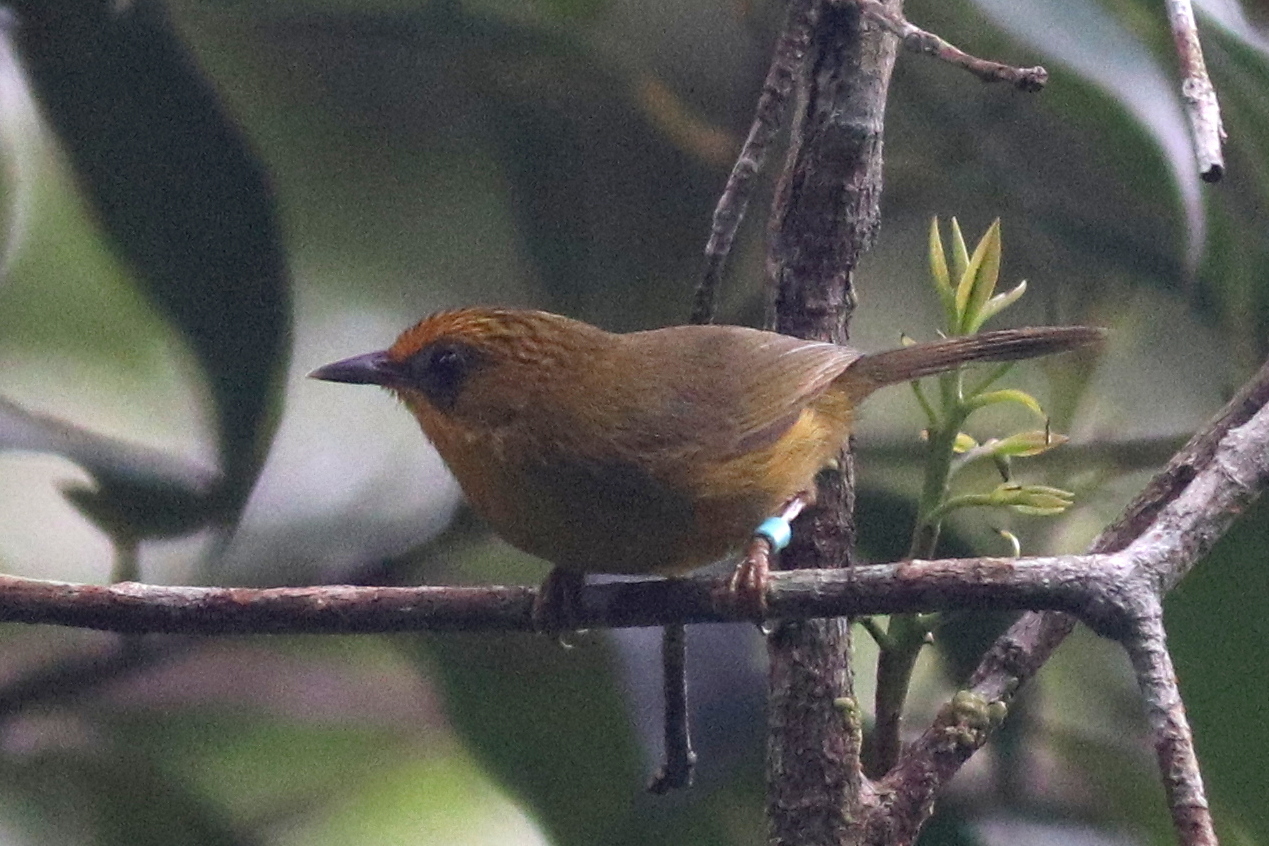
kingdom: Animalia
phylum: Chordata
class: Aves
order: Passeriformes
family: Timaliidae
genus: Stachyridopsis
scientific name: Stachyridopsis chrysaea
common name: Golden babbler
